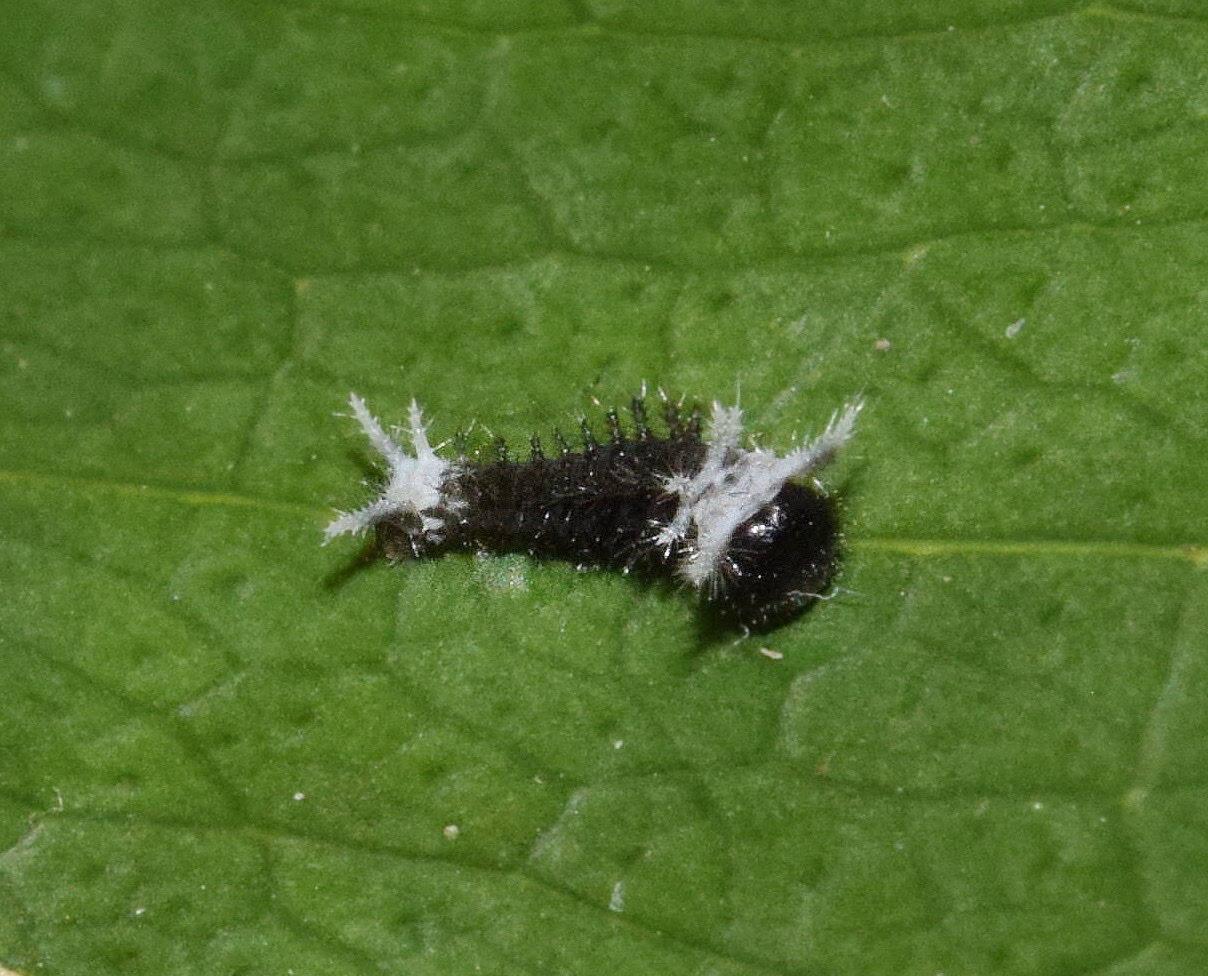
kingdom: Animalia
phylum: Arthropoda
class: Insecta
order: Lepidoptera
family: Papilionidae
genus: Papilio
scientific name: Papilio dardanus
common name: Flying handkerchief
